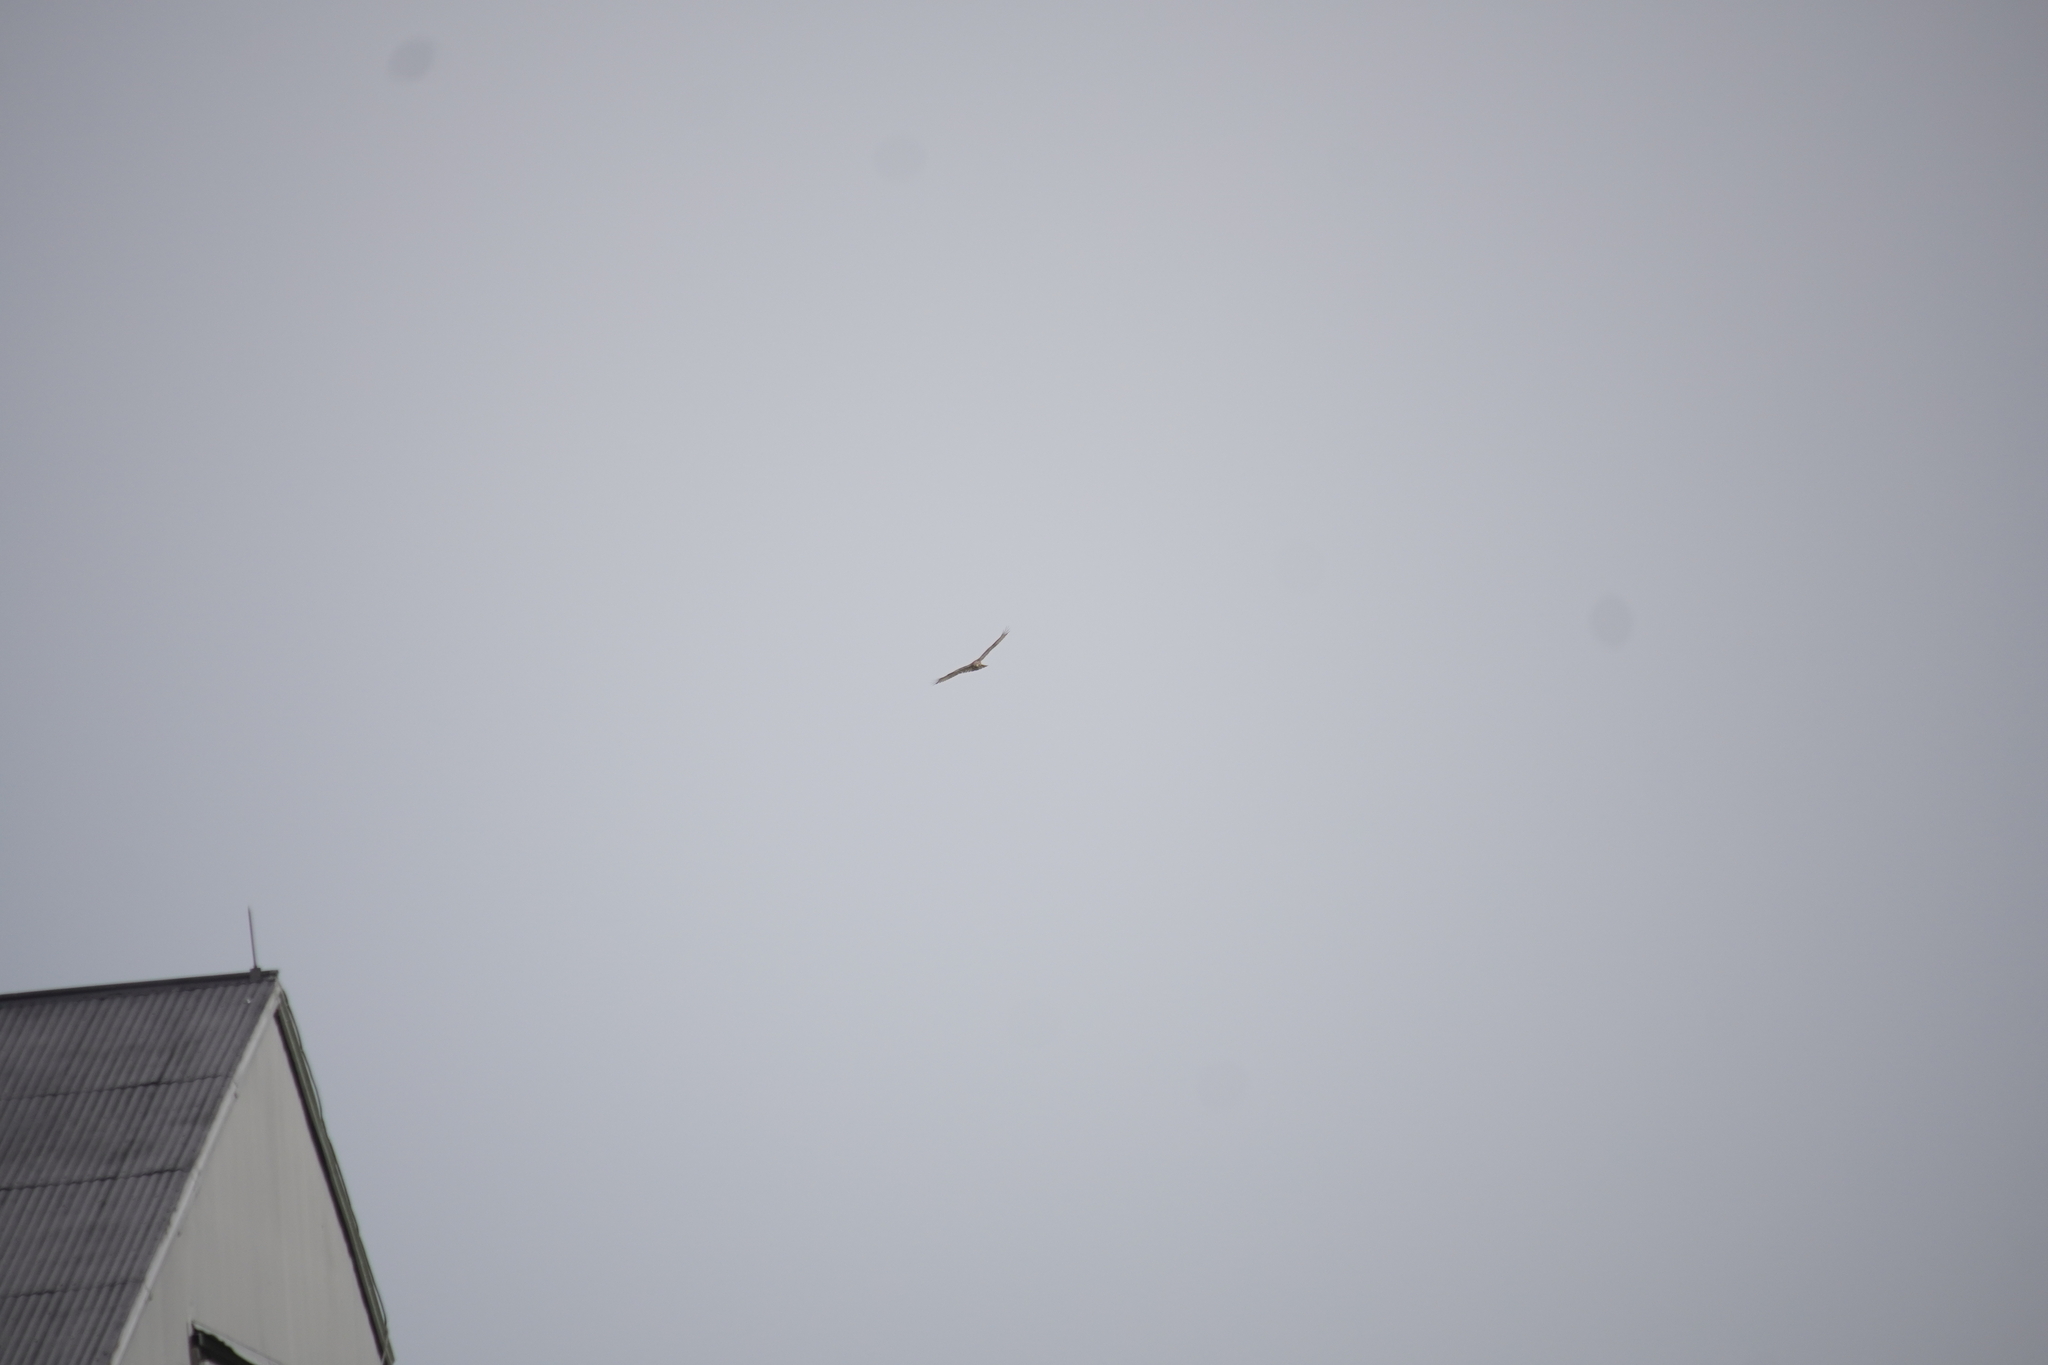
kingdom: Animalia
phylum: Chordata
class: Aves
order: Accipitriformes
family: Accipitridae
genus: Buteo
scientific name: Buteo jamaicensis
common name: Red-tailed hawk
